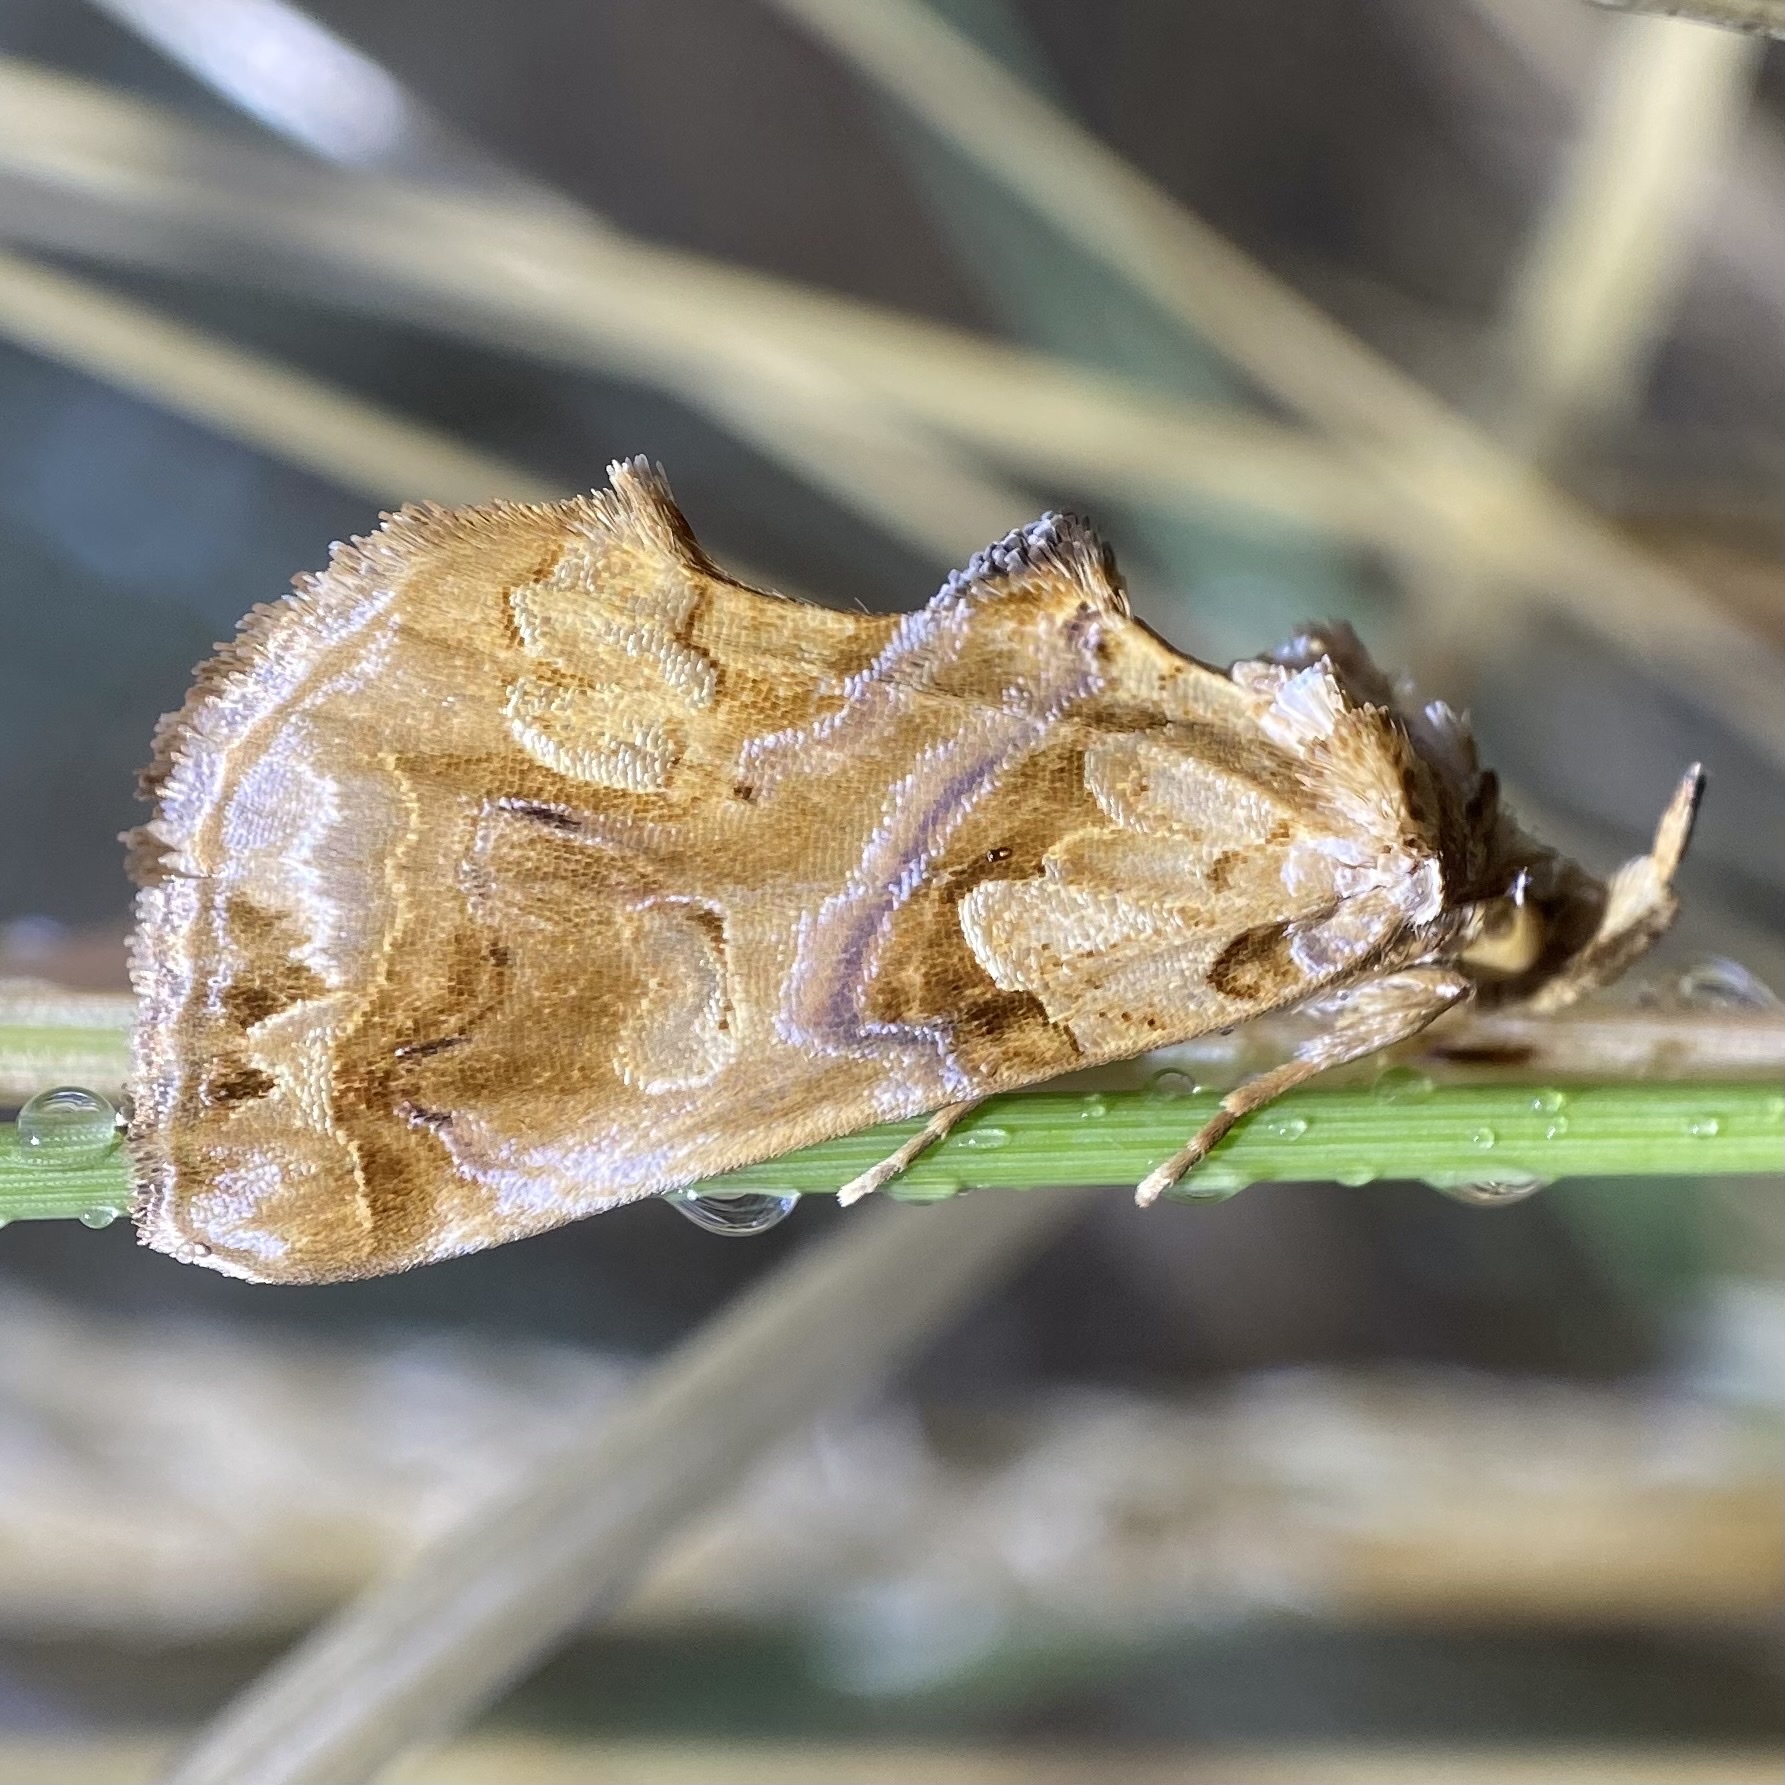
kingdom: Animalia
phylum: Arthropoda
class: Insecta
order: Lepidoptera
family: Erebidae
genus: Plusiodonta
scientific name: Plusiodonta compressipalpis
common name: Moonseed moth
